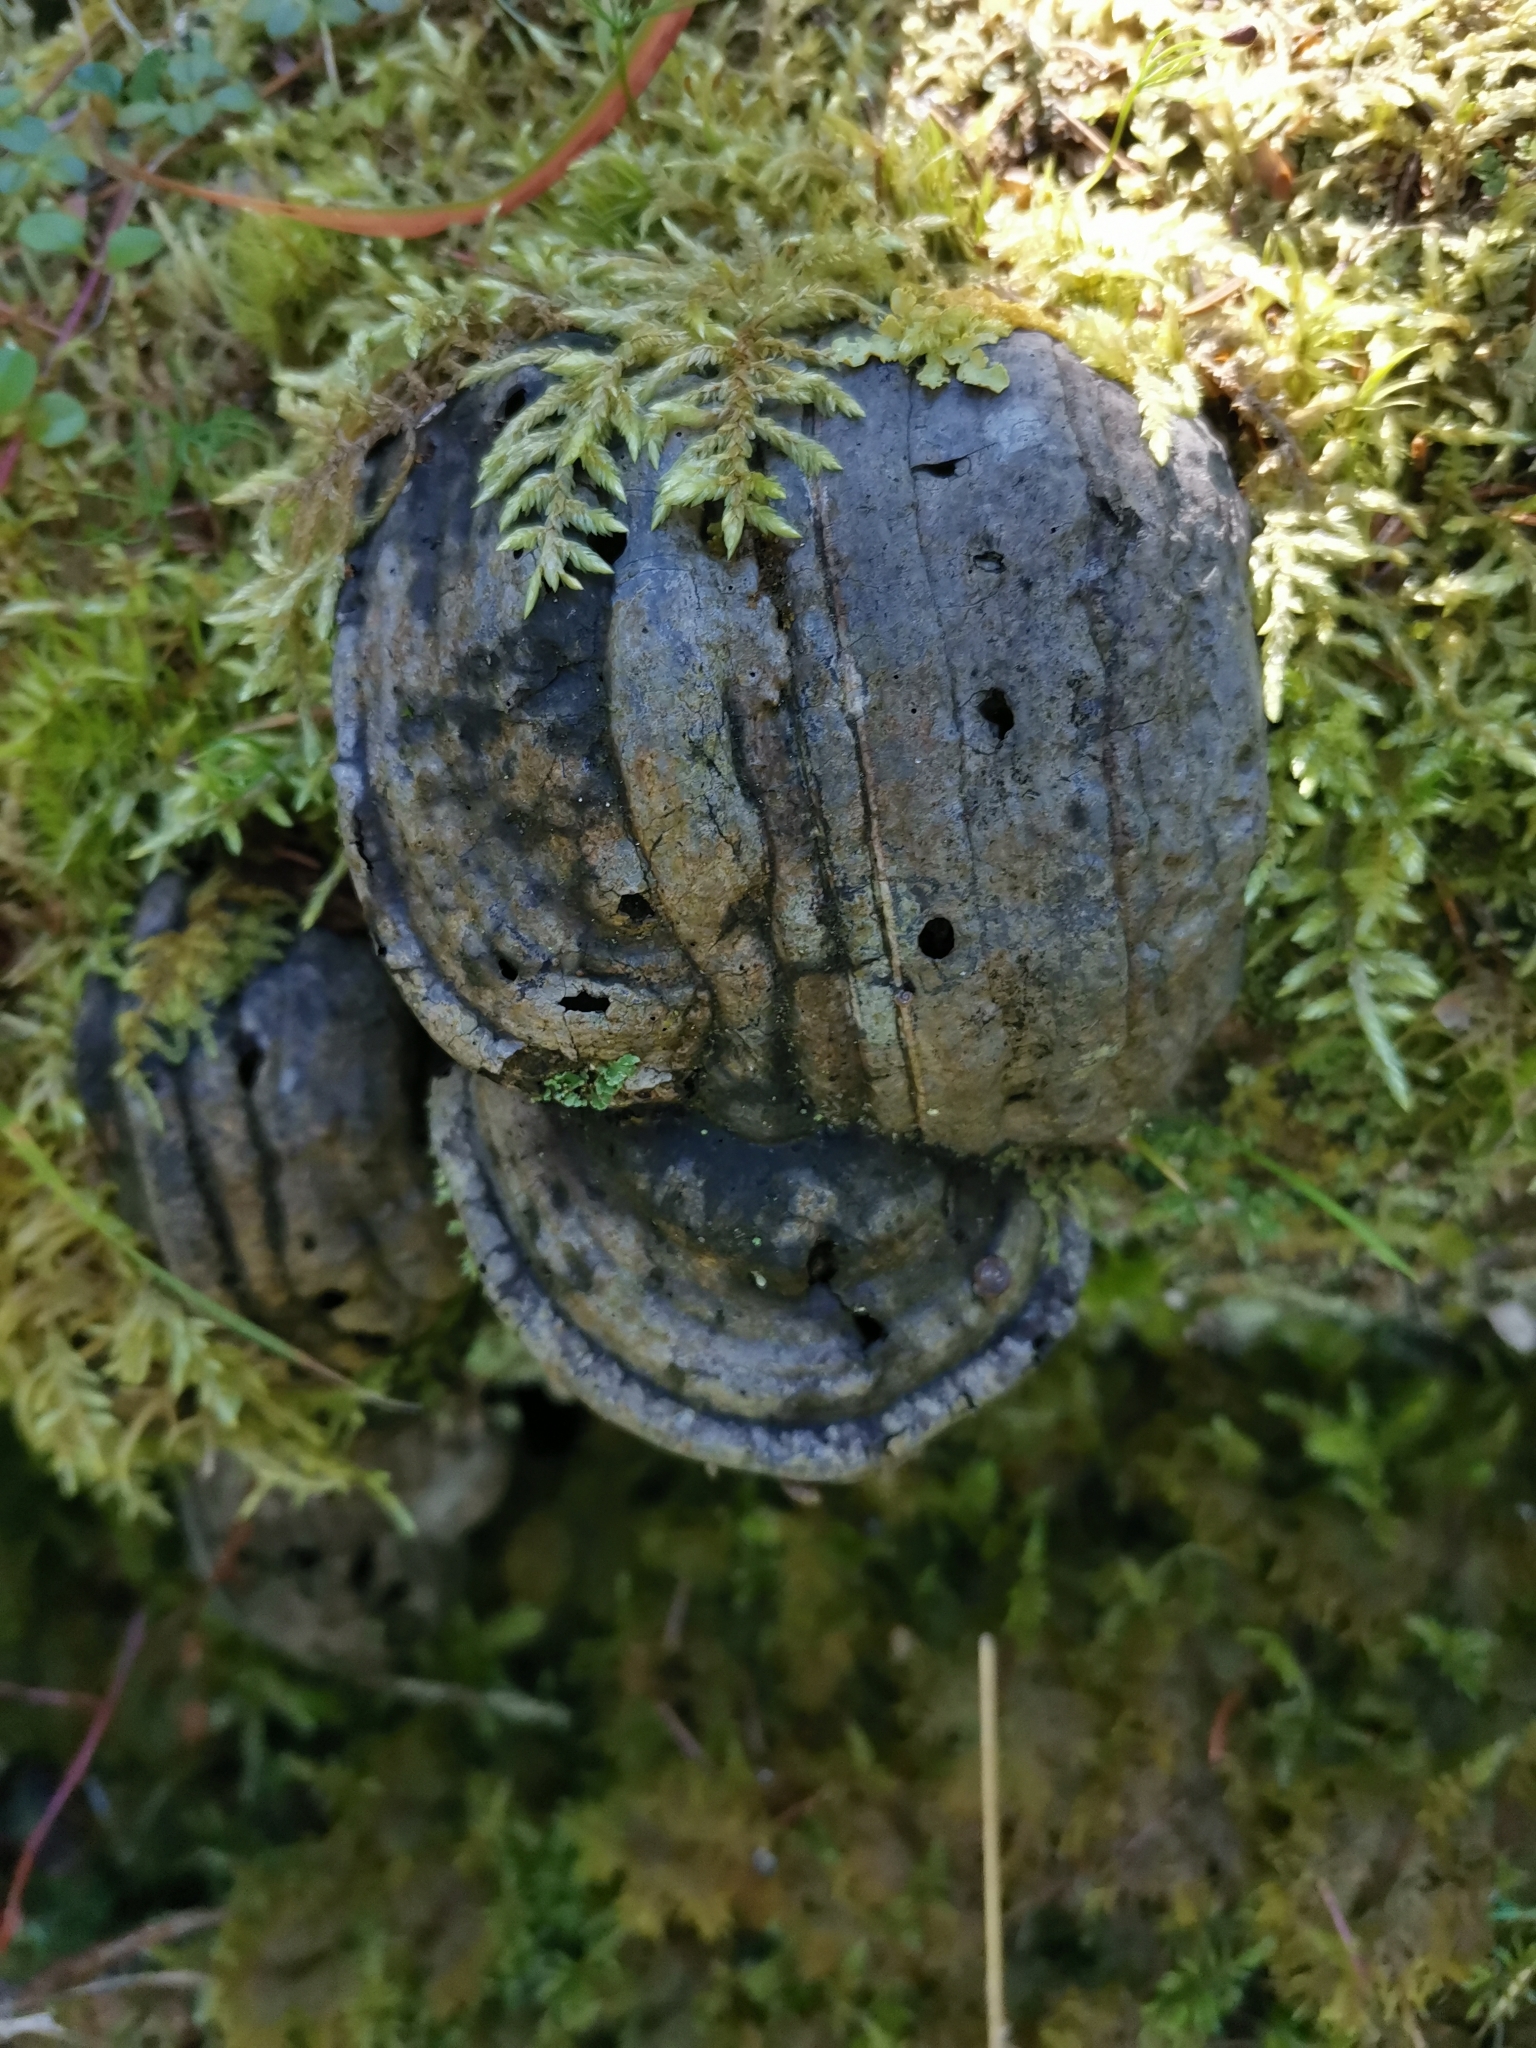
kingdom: Fungi
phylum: Basidiomycota
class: Agaricomycetes
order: Polyporales
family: Polyporaceae
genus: Fomes
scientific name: Fomes fomentarius
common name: Hoof fungus
